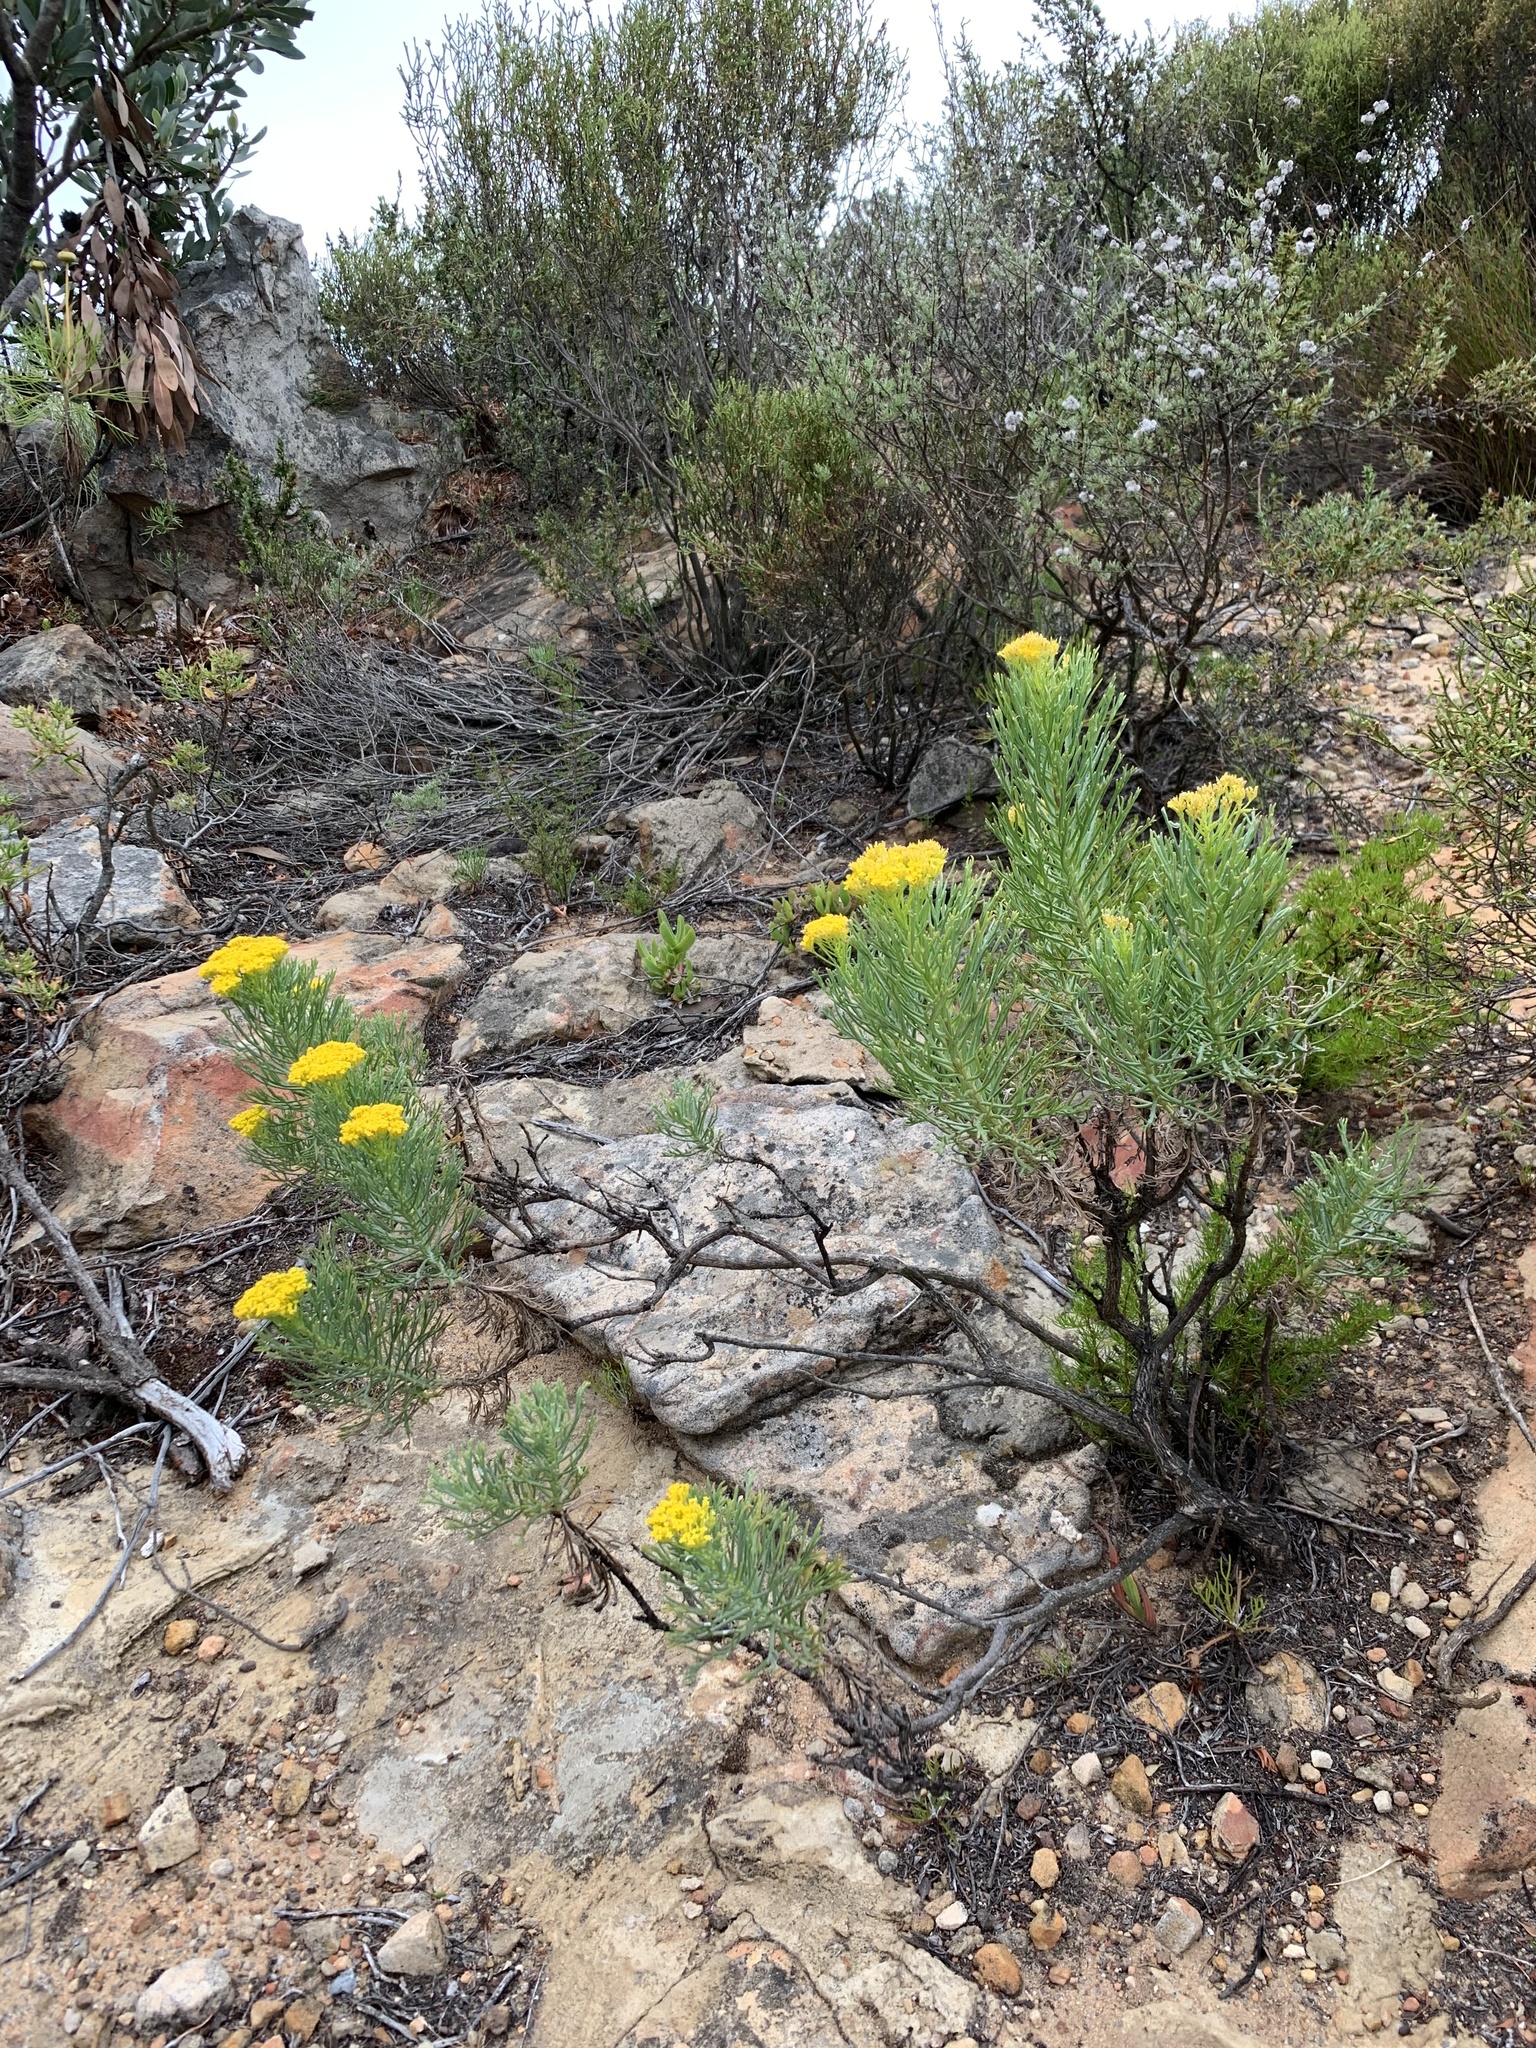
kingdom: Plantae
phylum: Tracheophyta
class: Magnoliopsida
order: Asterales
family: Asteraceae
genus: Hymenolepis
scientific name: Hymenolepis crithmifolia
